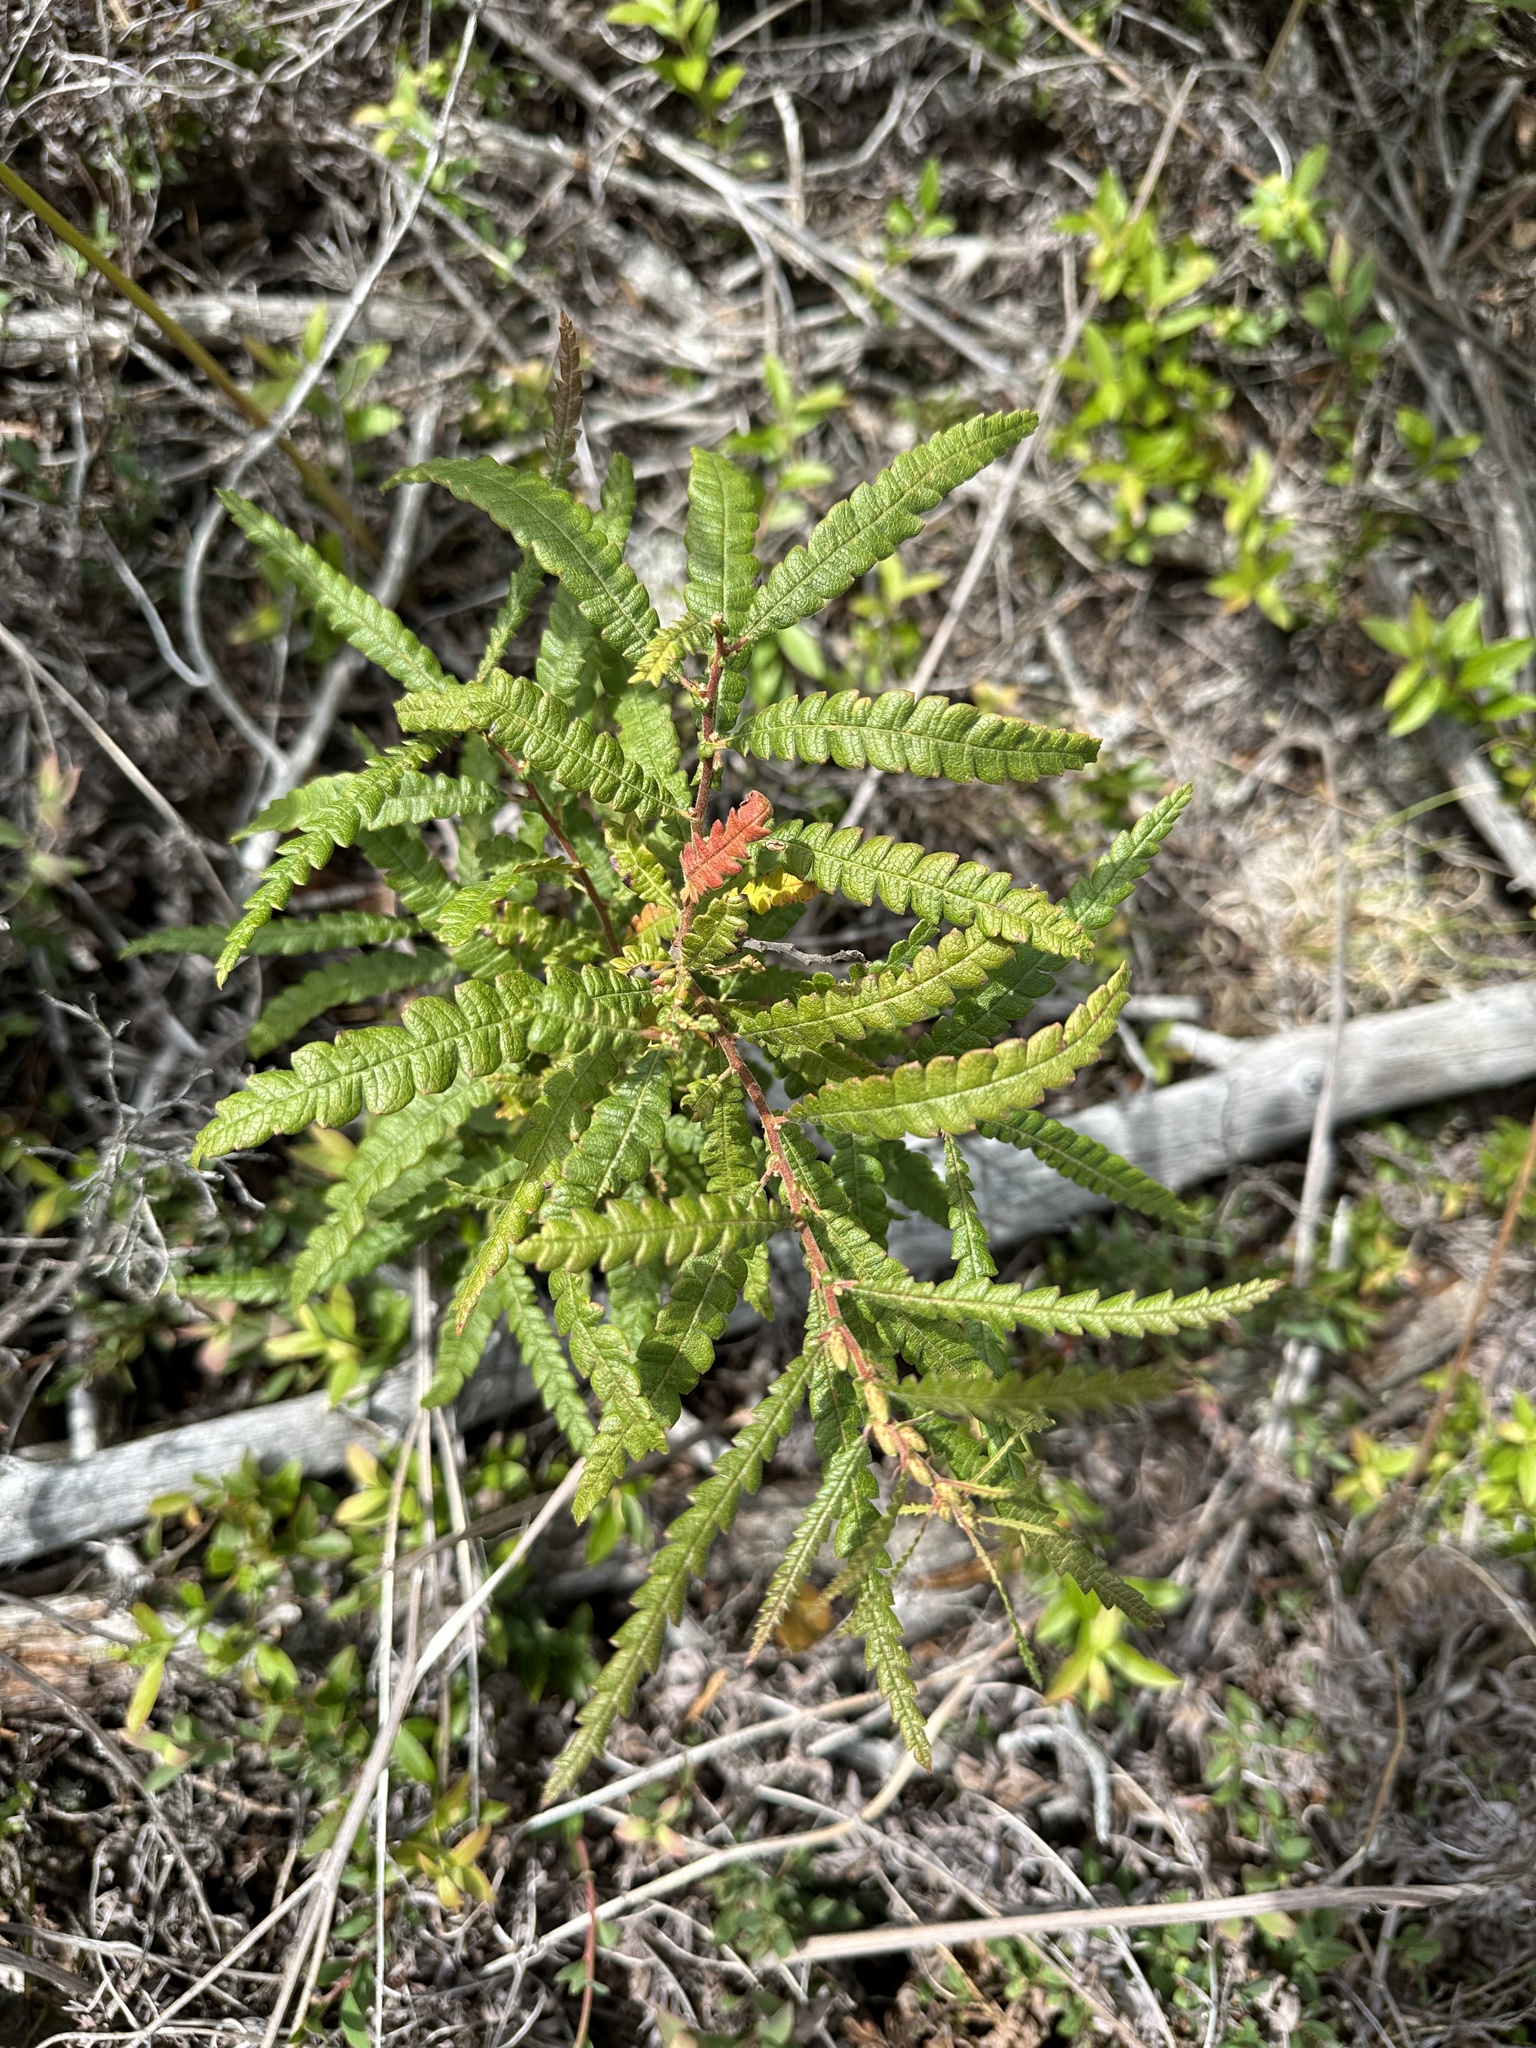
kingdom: Plantae
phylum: Tracheophyta
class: Magnoliopsida
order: Fagales
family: Myricaceae
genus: Comptonia
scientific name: Comptonia peregrina
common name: Sweet-fern
